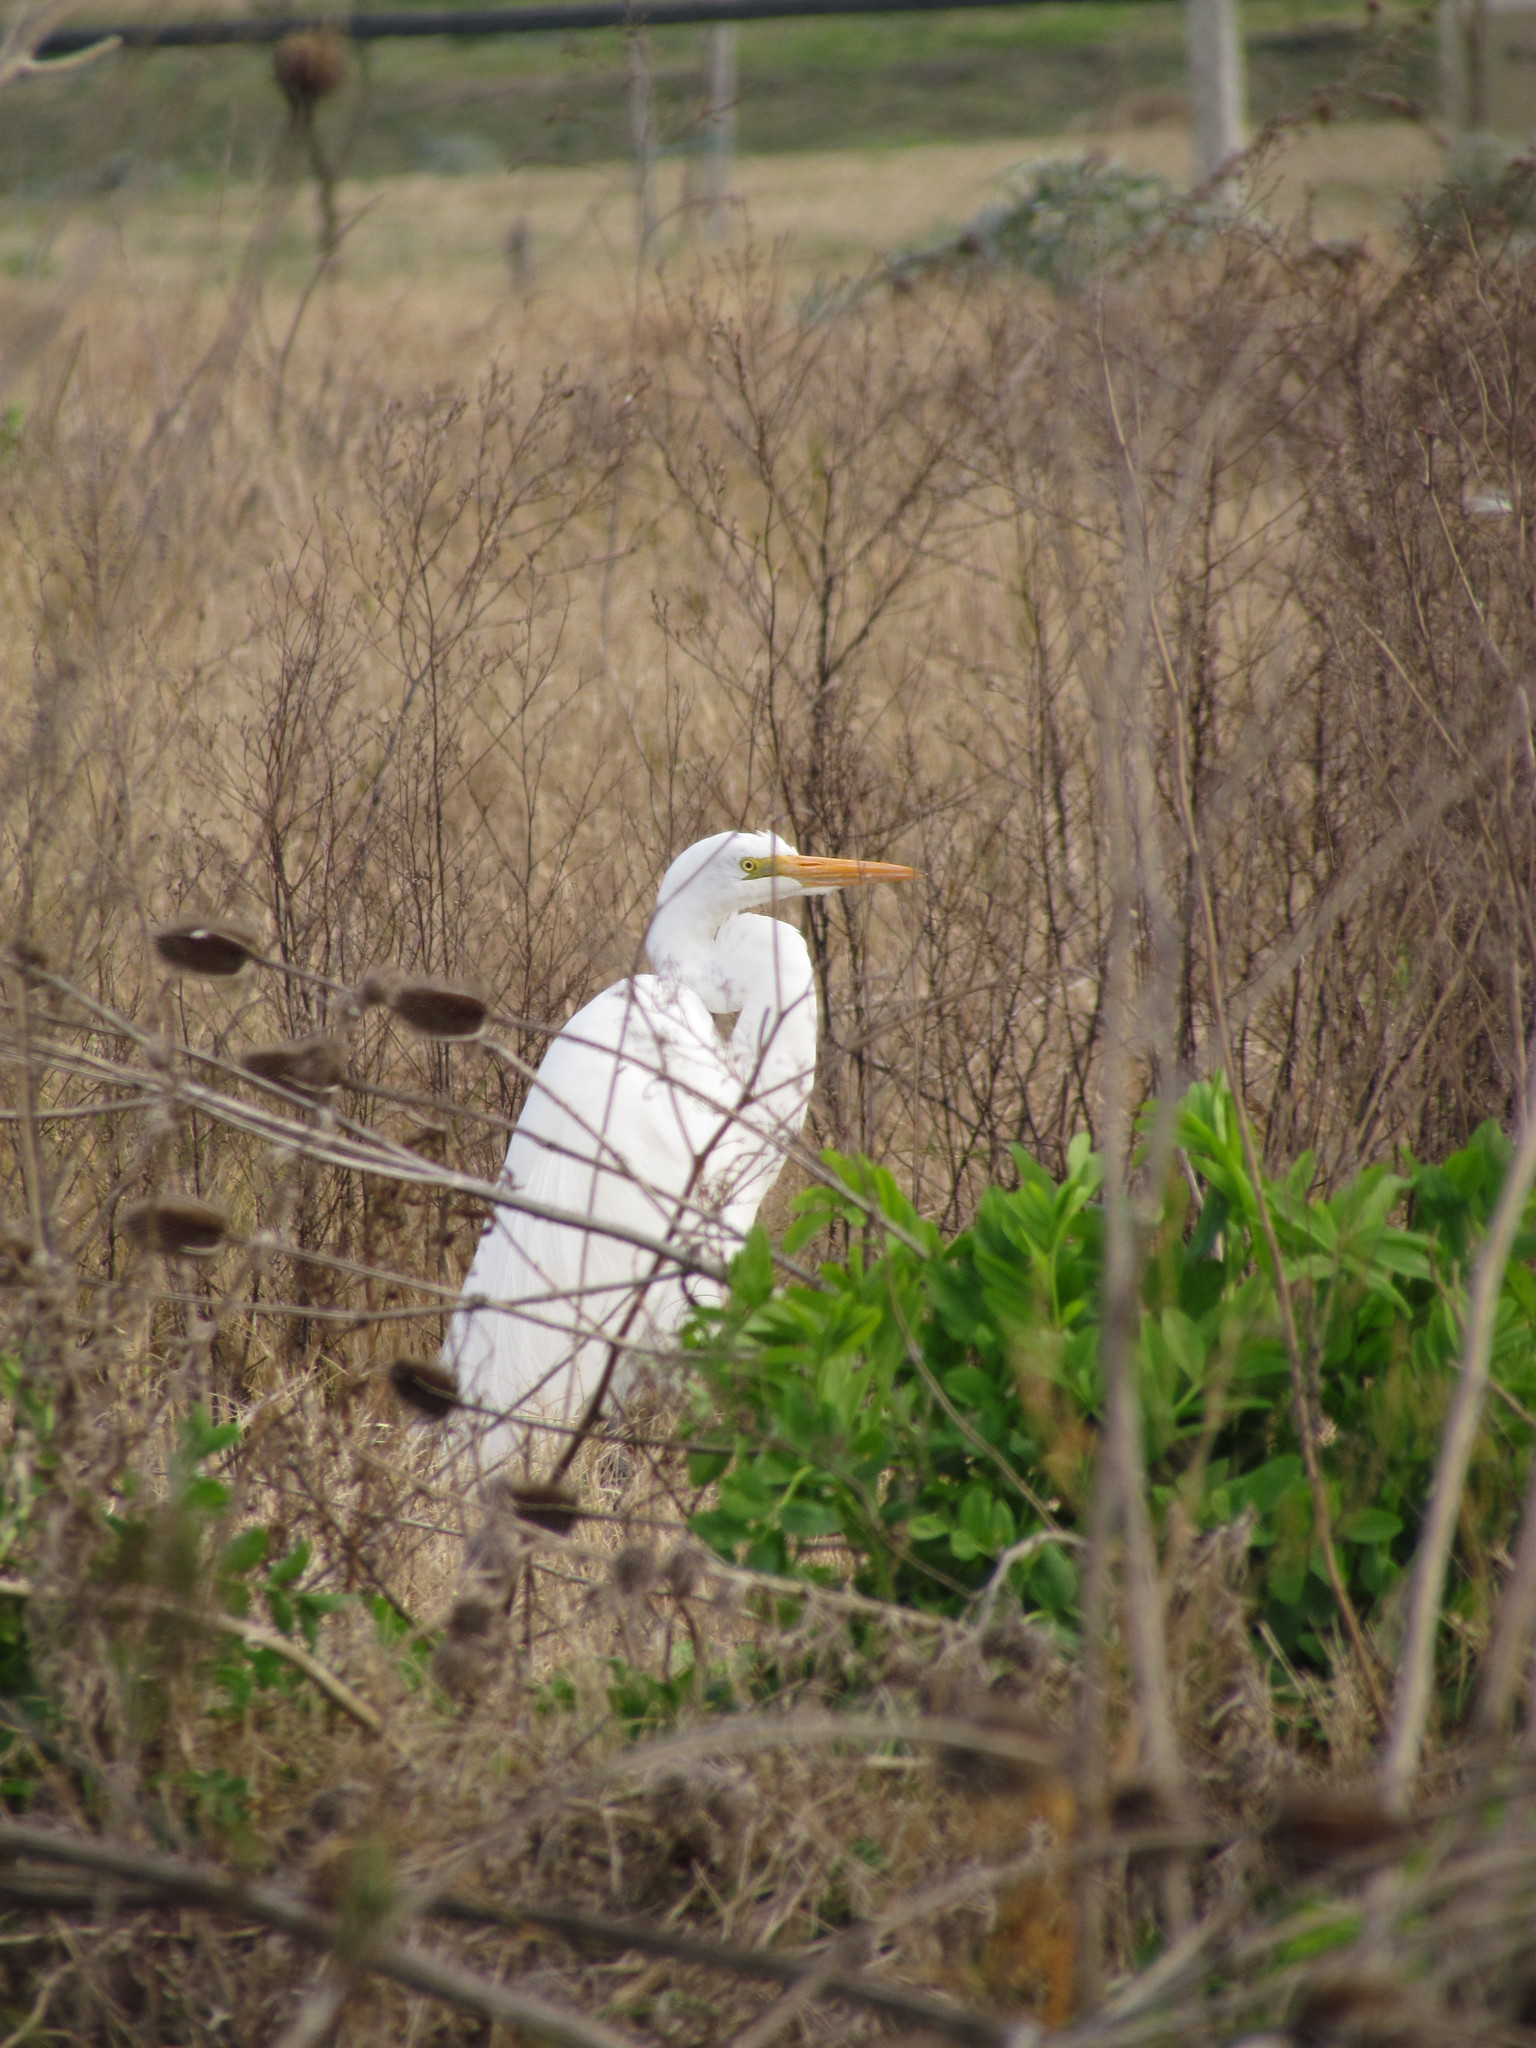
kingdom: Animalia
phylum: Chordata
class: Aves
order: Pelecaniformes
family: Ardeidae
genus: Ardea
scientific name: Ardea alba
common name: Great egret
